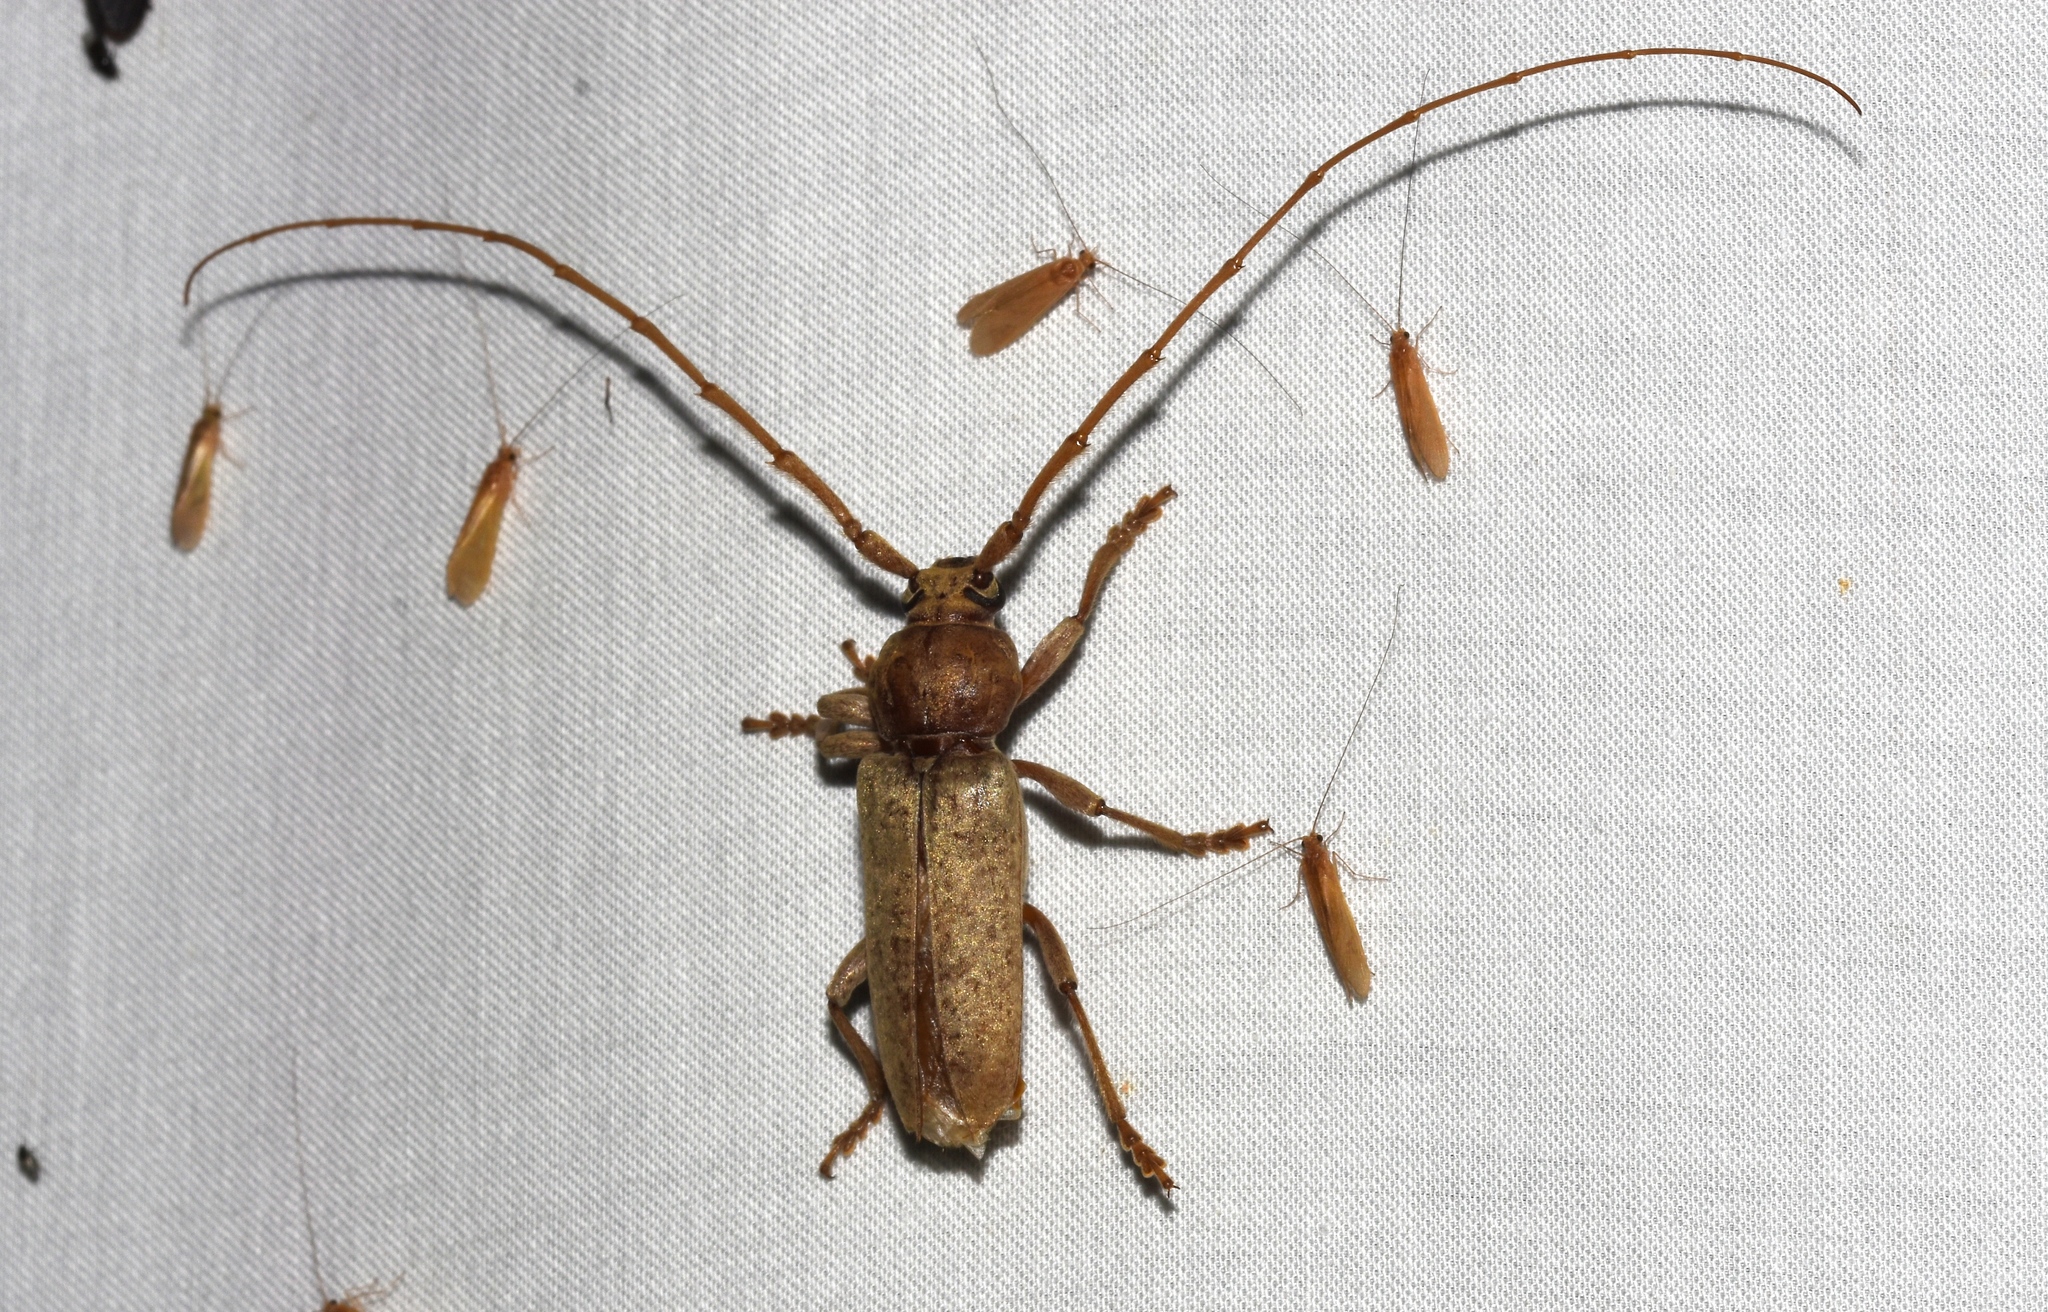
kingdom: Animalia
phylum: Arthropoda
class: Insecta
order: Coleoptera
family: Cerambycidae
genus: Enaphalodes
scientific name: Enaphalodes rufulus
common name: Red oak borer
